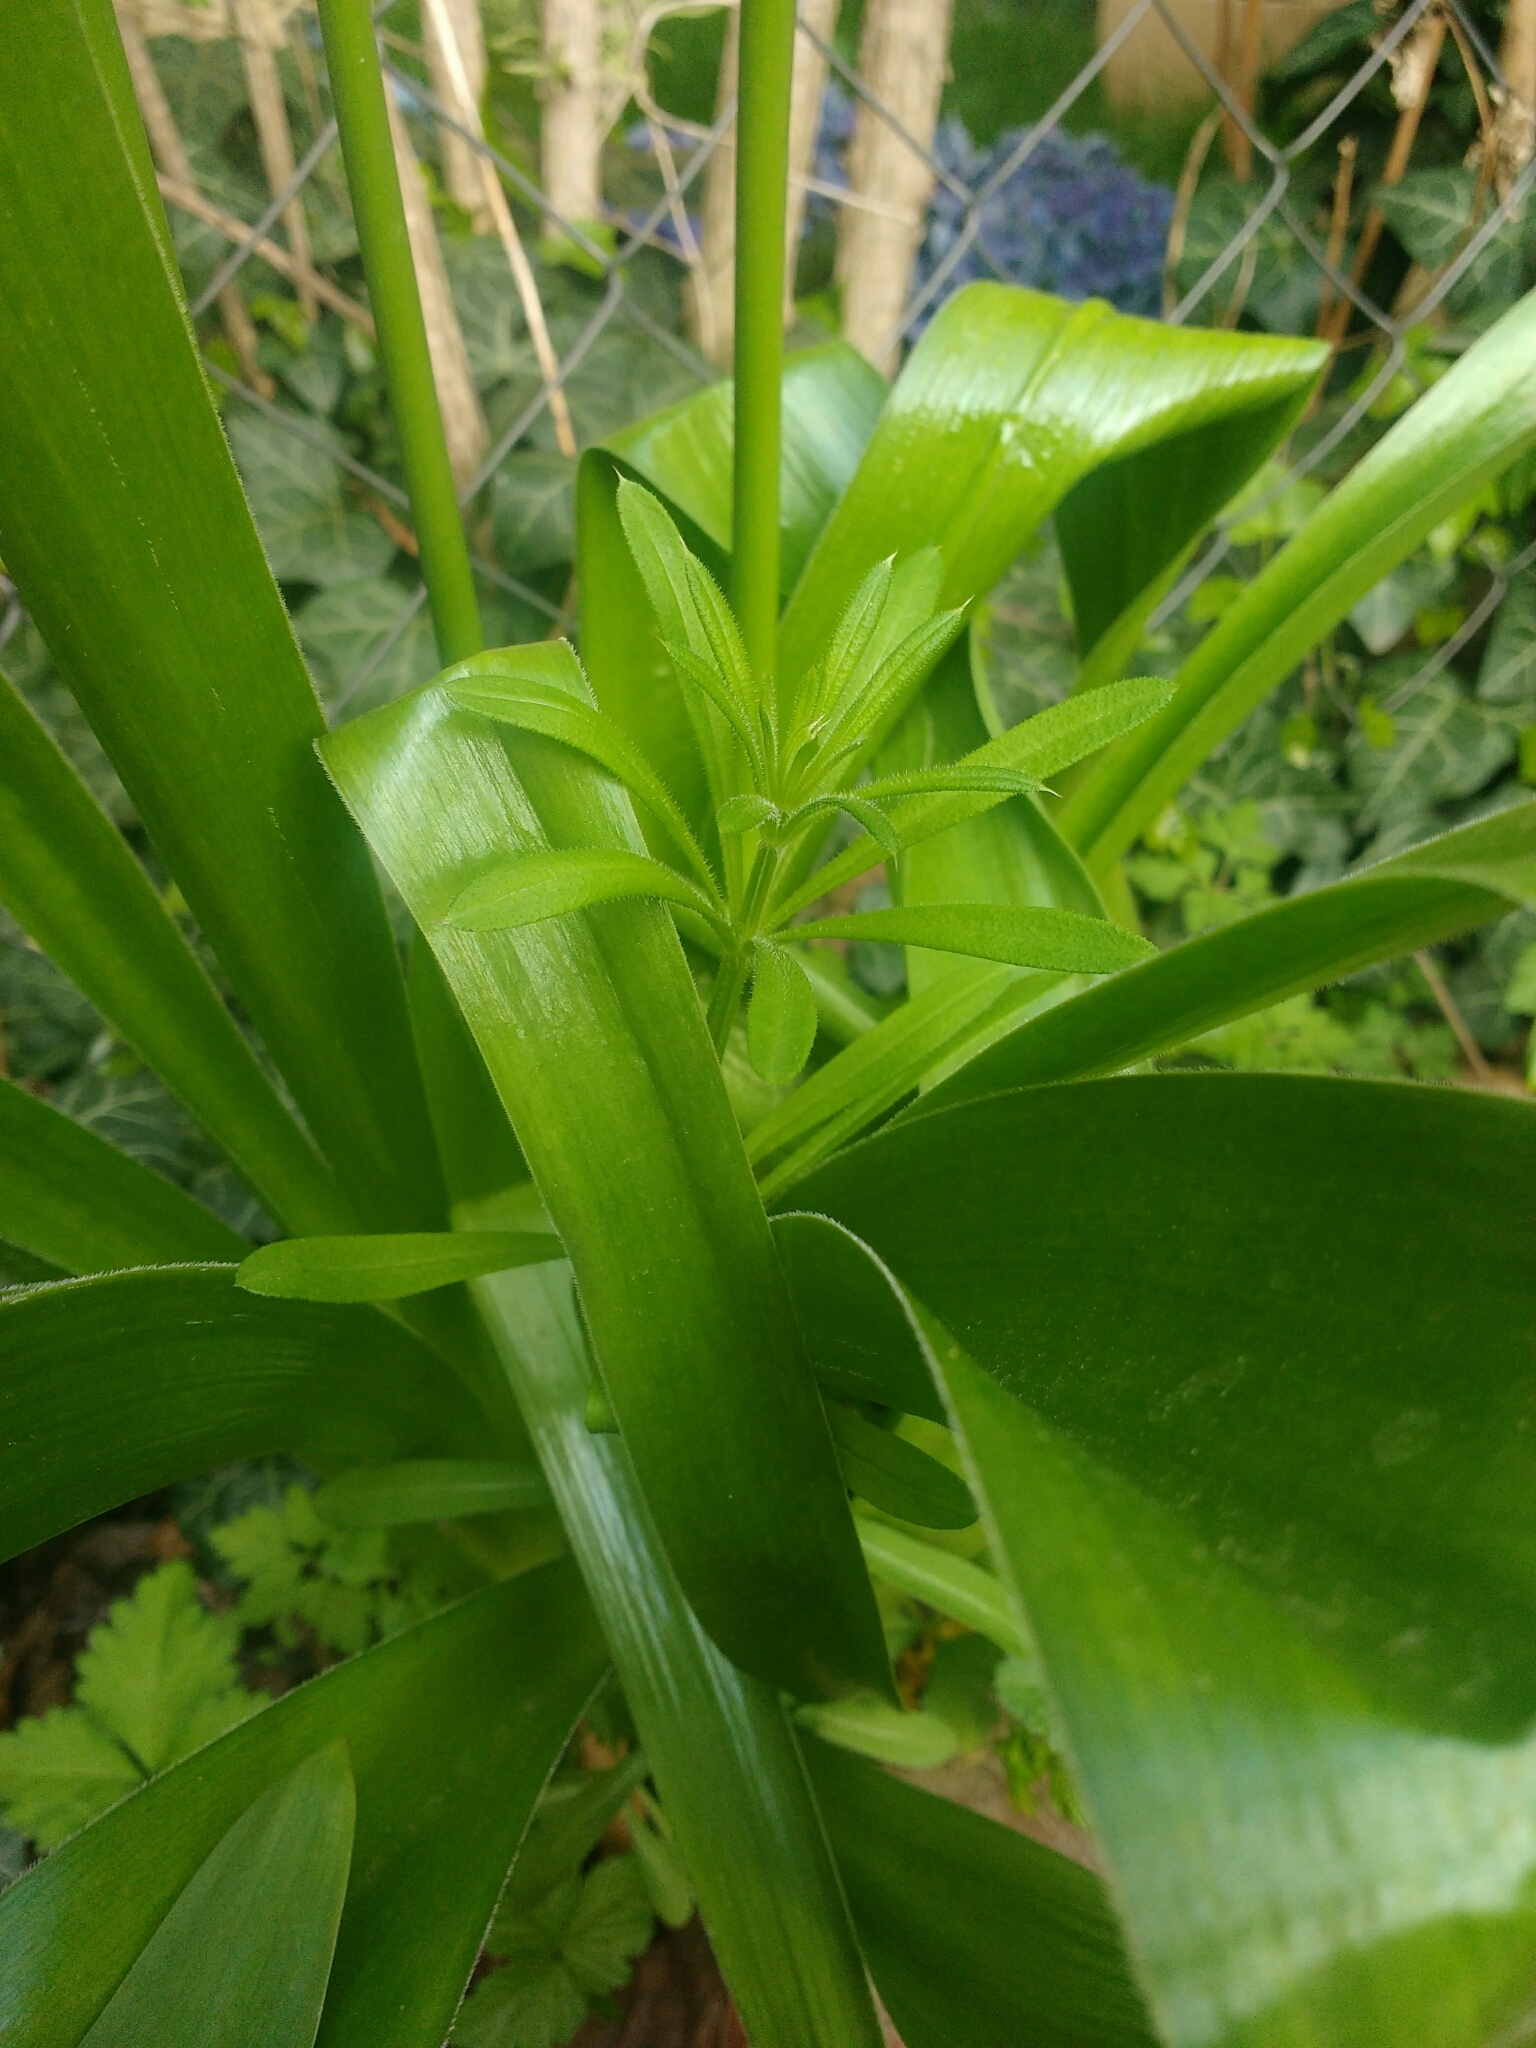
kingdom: Plantae
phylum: Tracheophyta
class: Magnoliopsida
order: Gentianales
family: Rubiaceae
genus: Galium
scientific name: Galium aparine
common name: Cleavers
